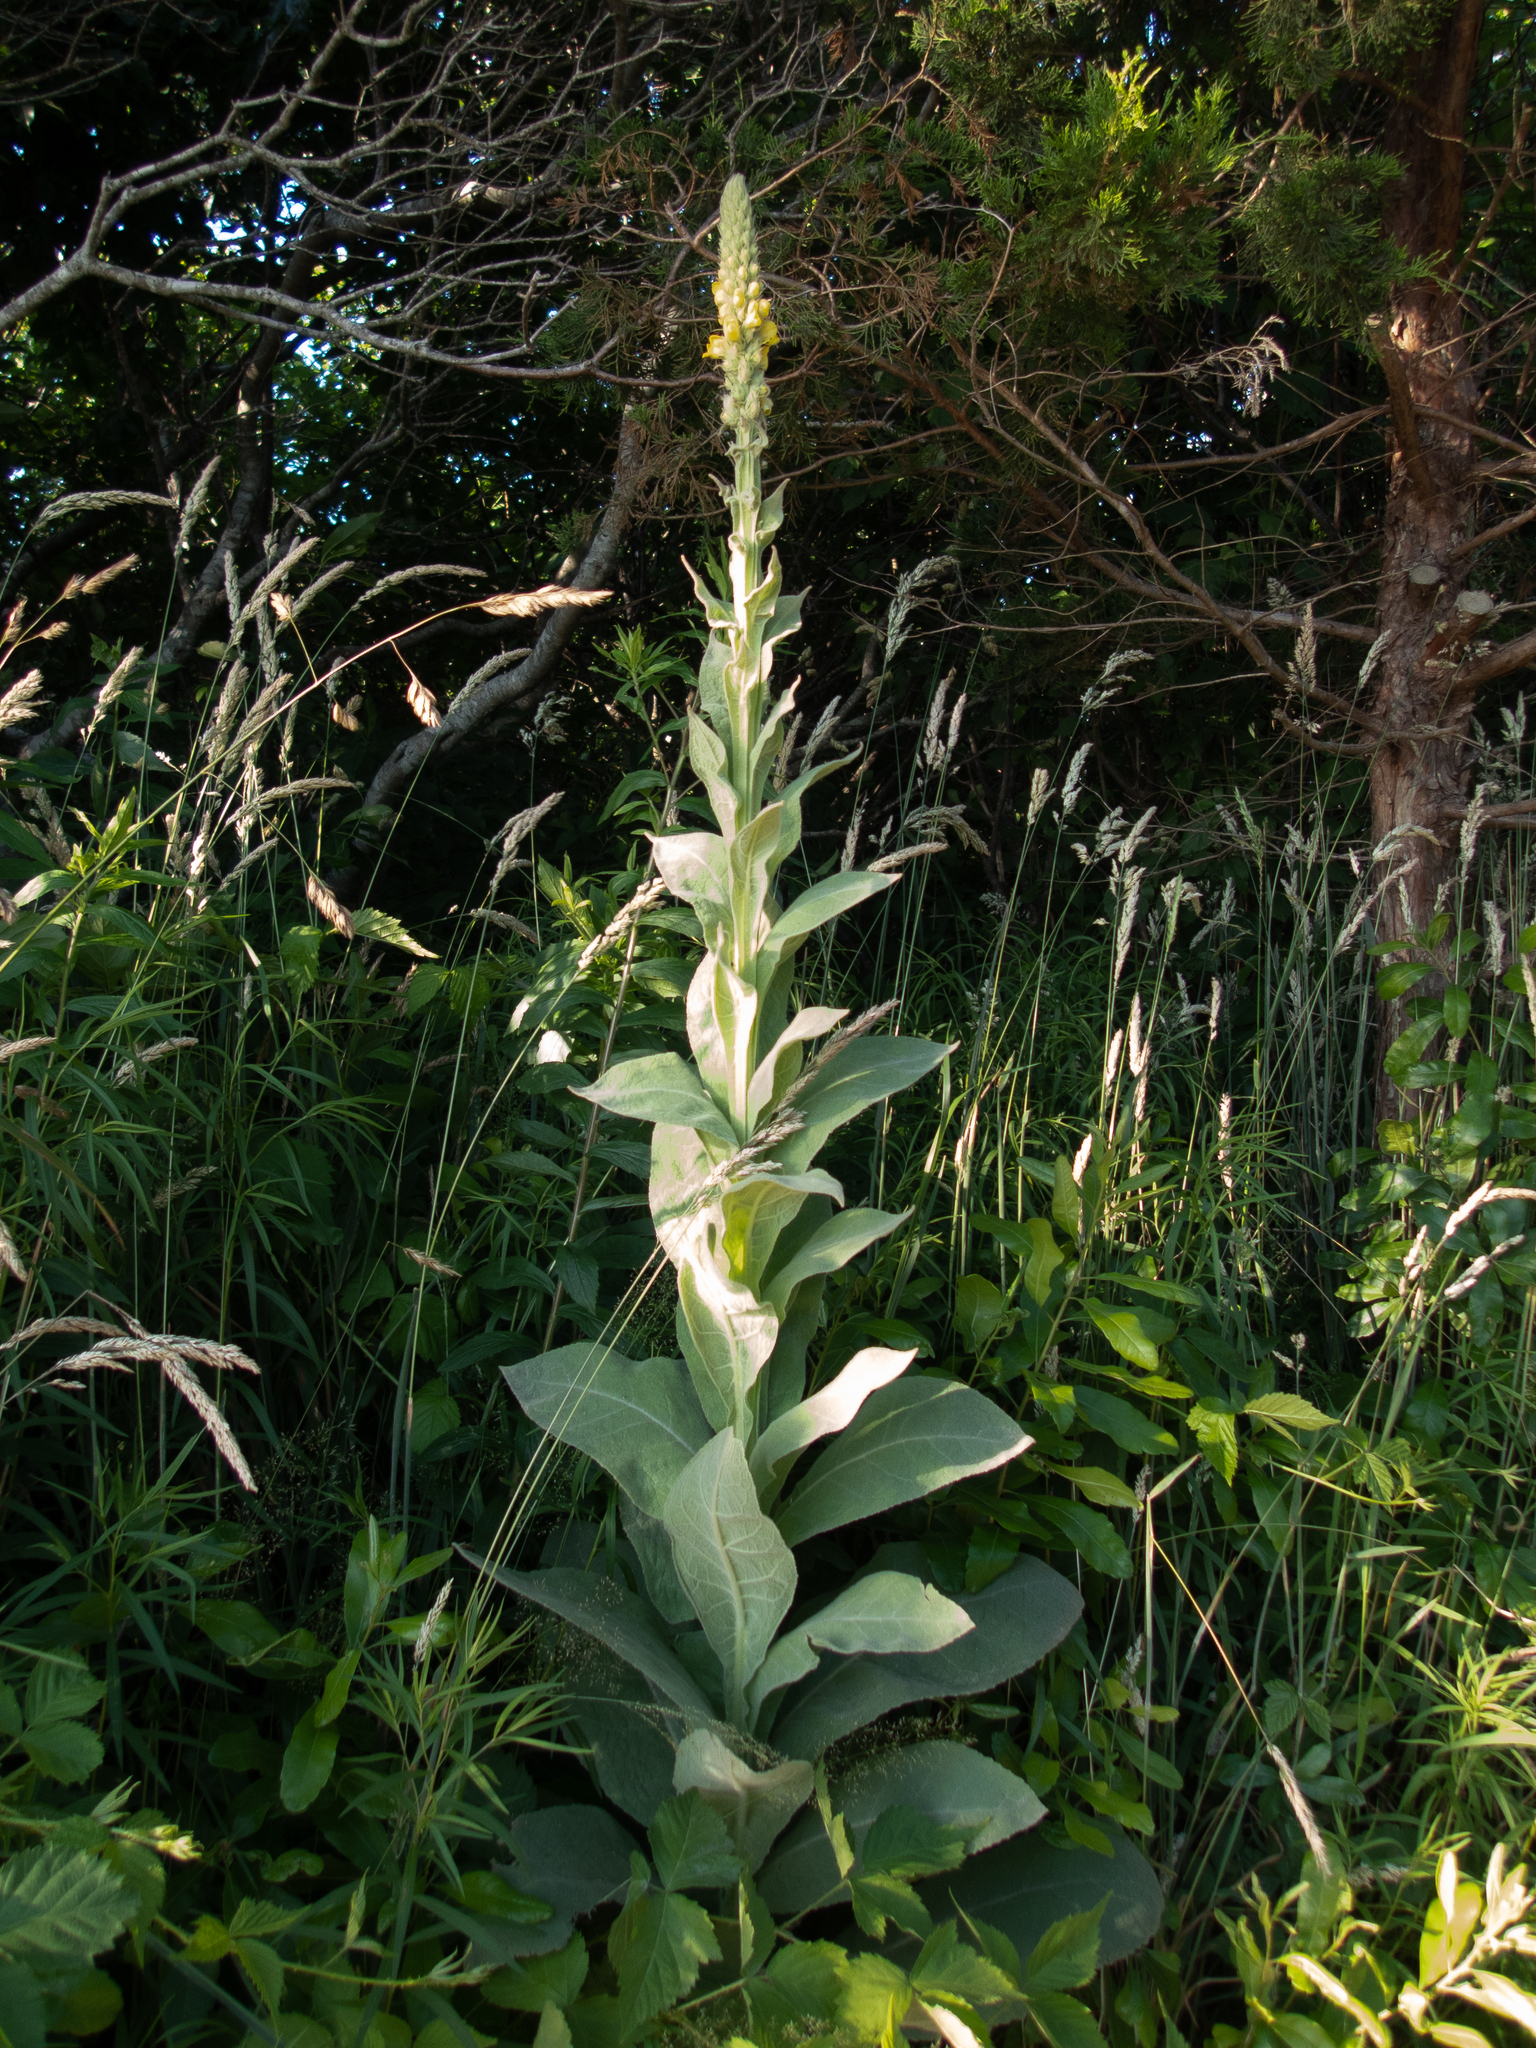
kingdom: Plantae
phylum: Tracheophyta
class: Magnoliopsida
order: Lamiales
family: Scrophulariaceae
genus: Verbascum
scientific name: Verbascum thapsus
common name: Common mullein
